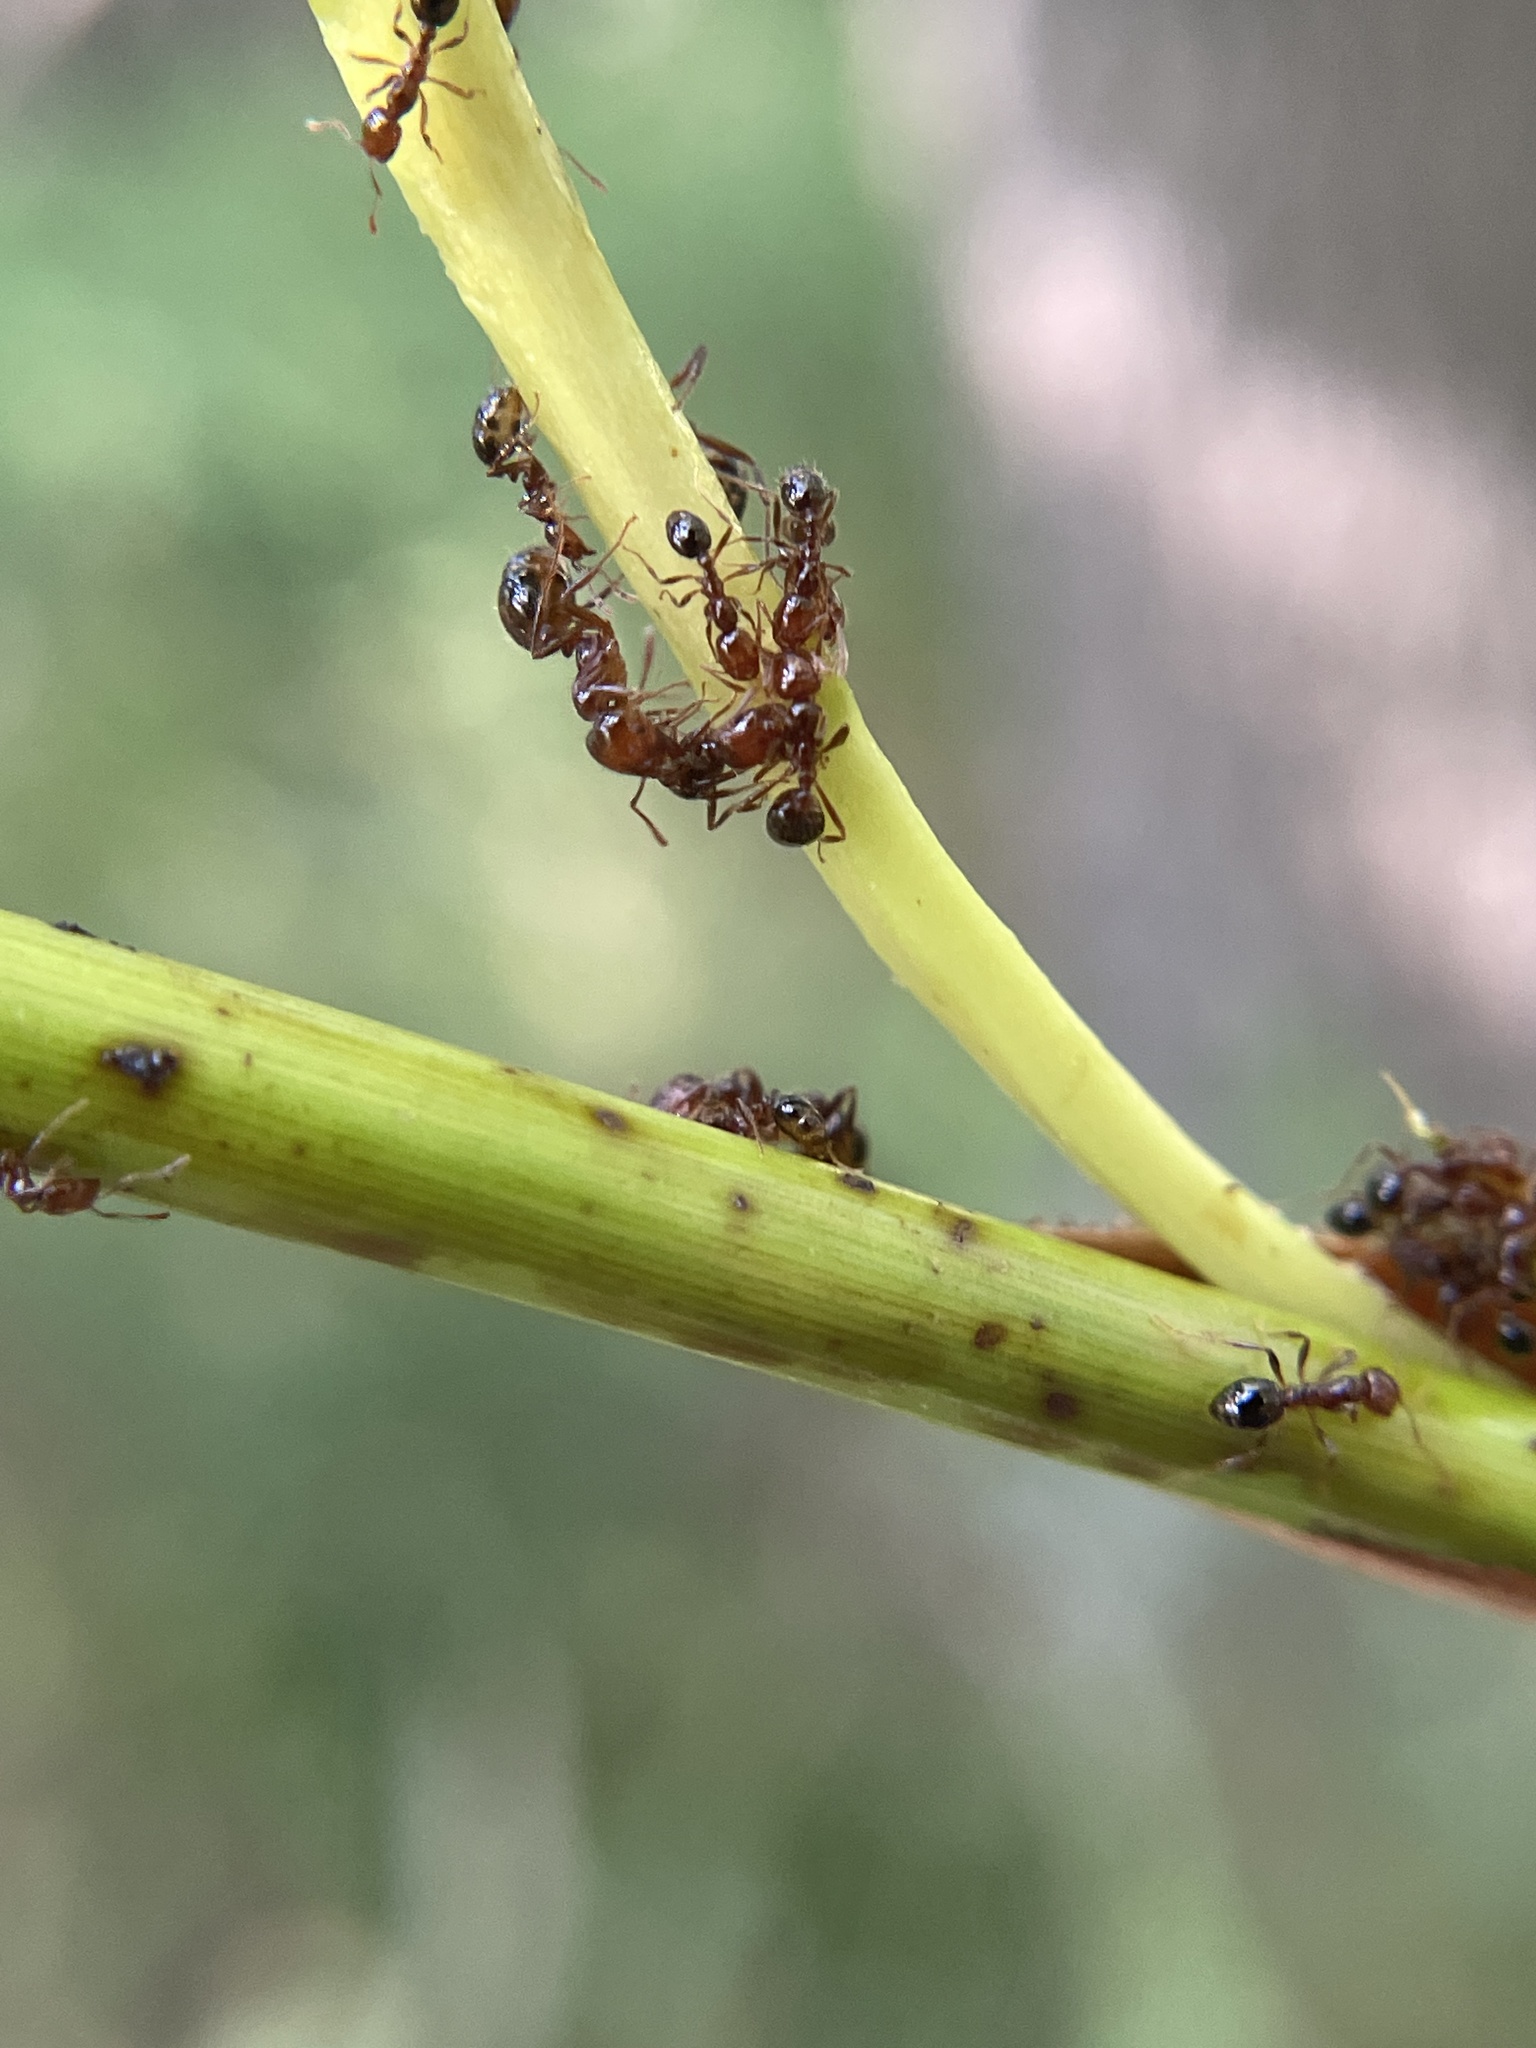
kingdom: Animalia
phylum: Arthropoda
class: Insecta
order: Hymenoptera
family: Formicidae
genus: Solenopsis
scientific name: Solenopsis invicta
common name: Red imported fire ant
